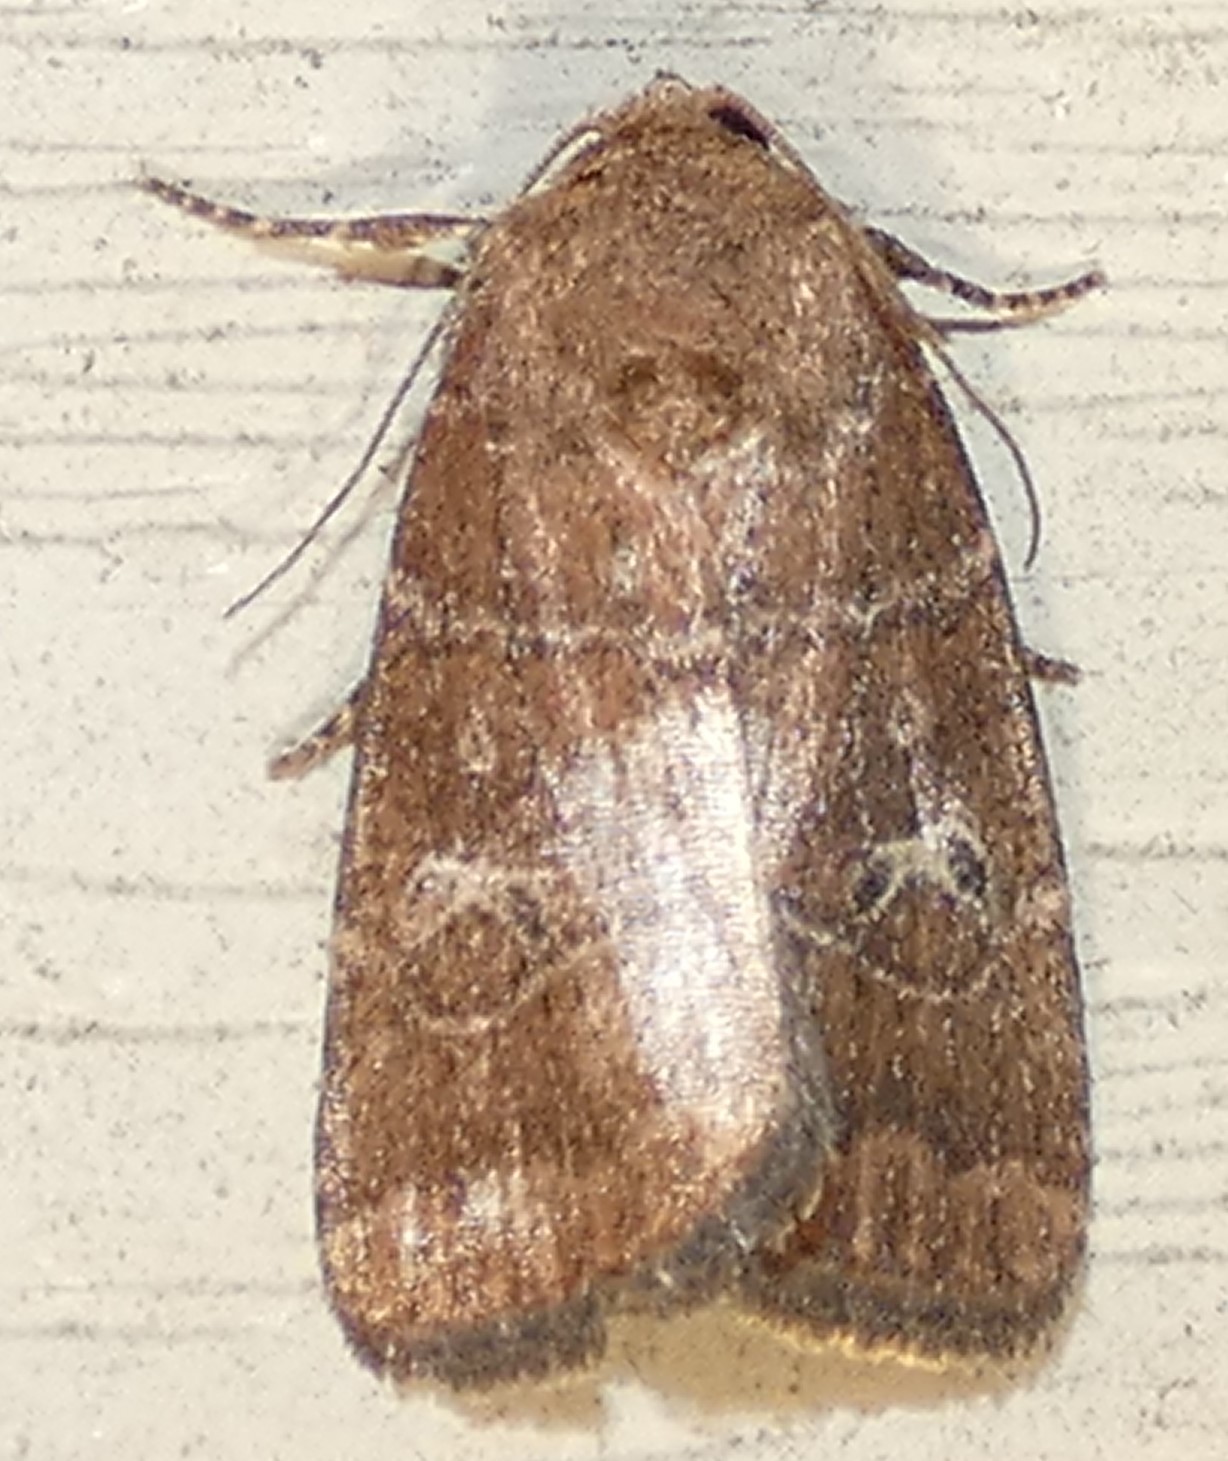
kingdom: Animalia
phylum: Arthropoda
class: Insecta
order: Lepidoptera
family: Noctuidae
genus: Elaphria
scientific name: Elaphria grata
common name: Grateful midget moth
